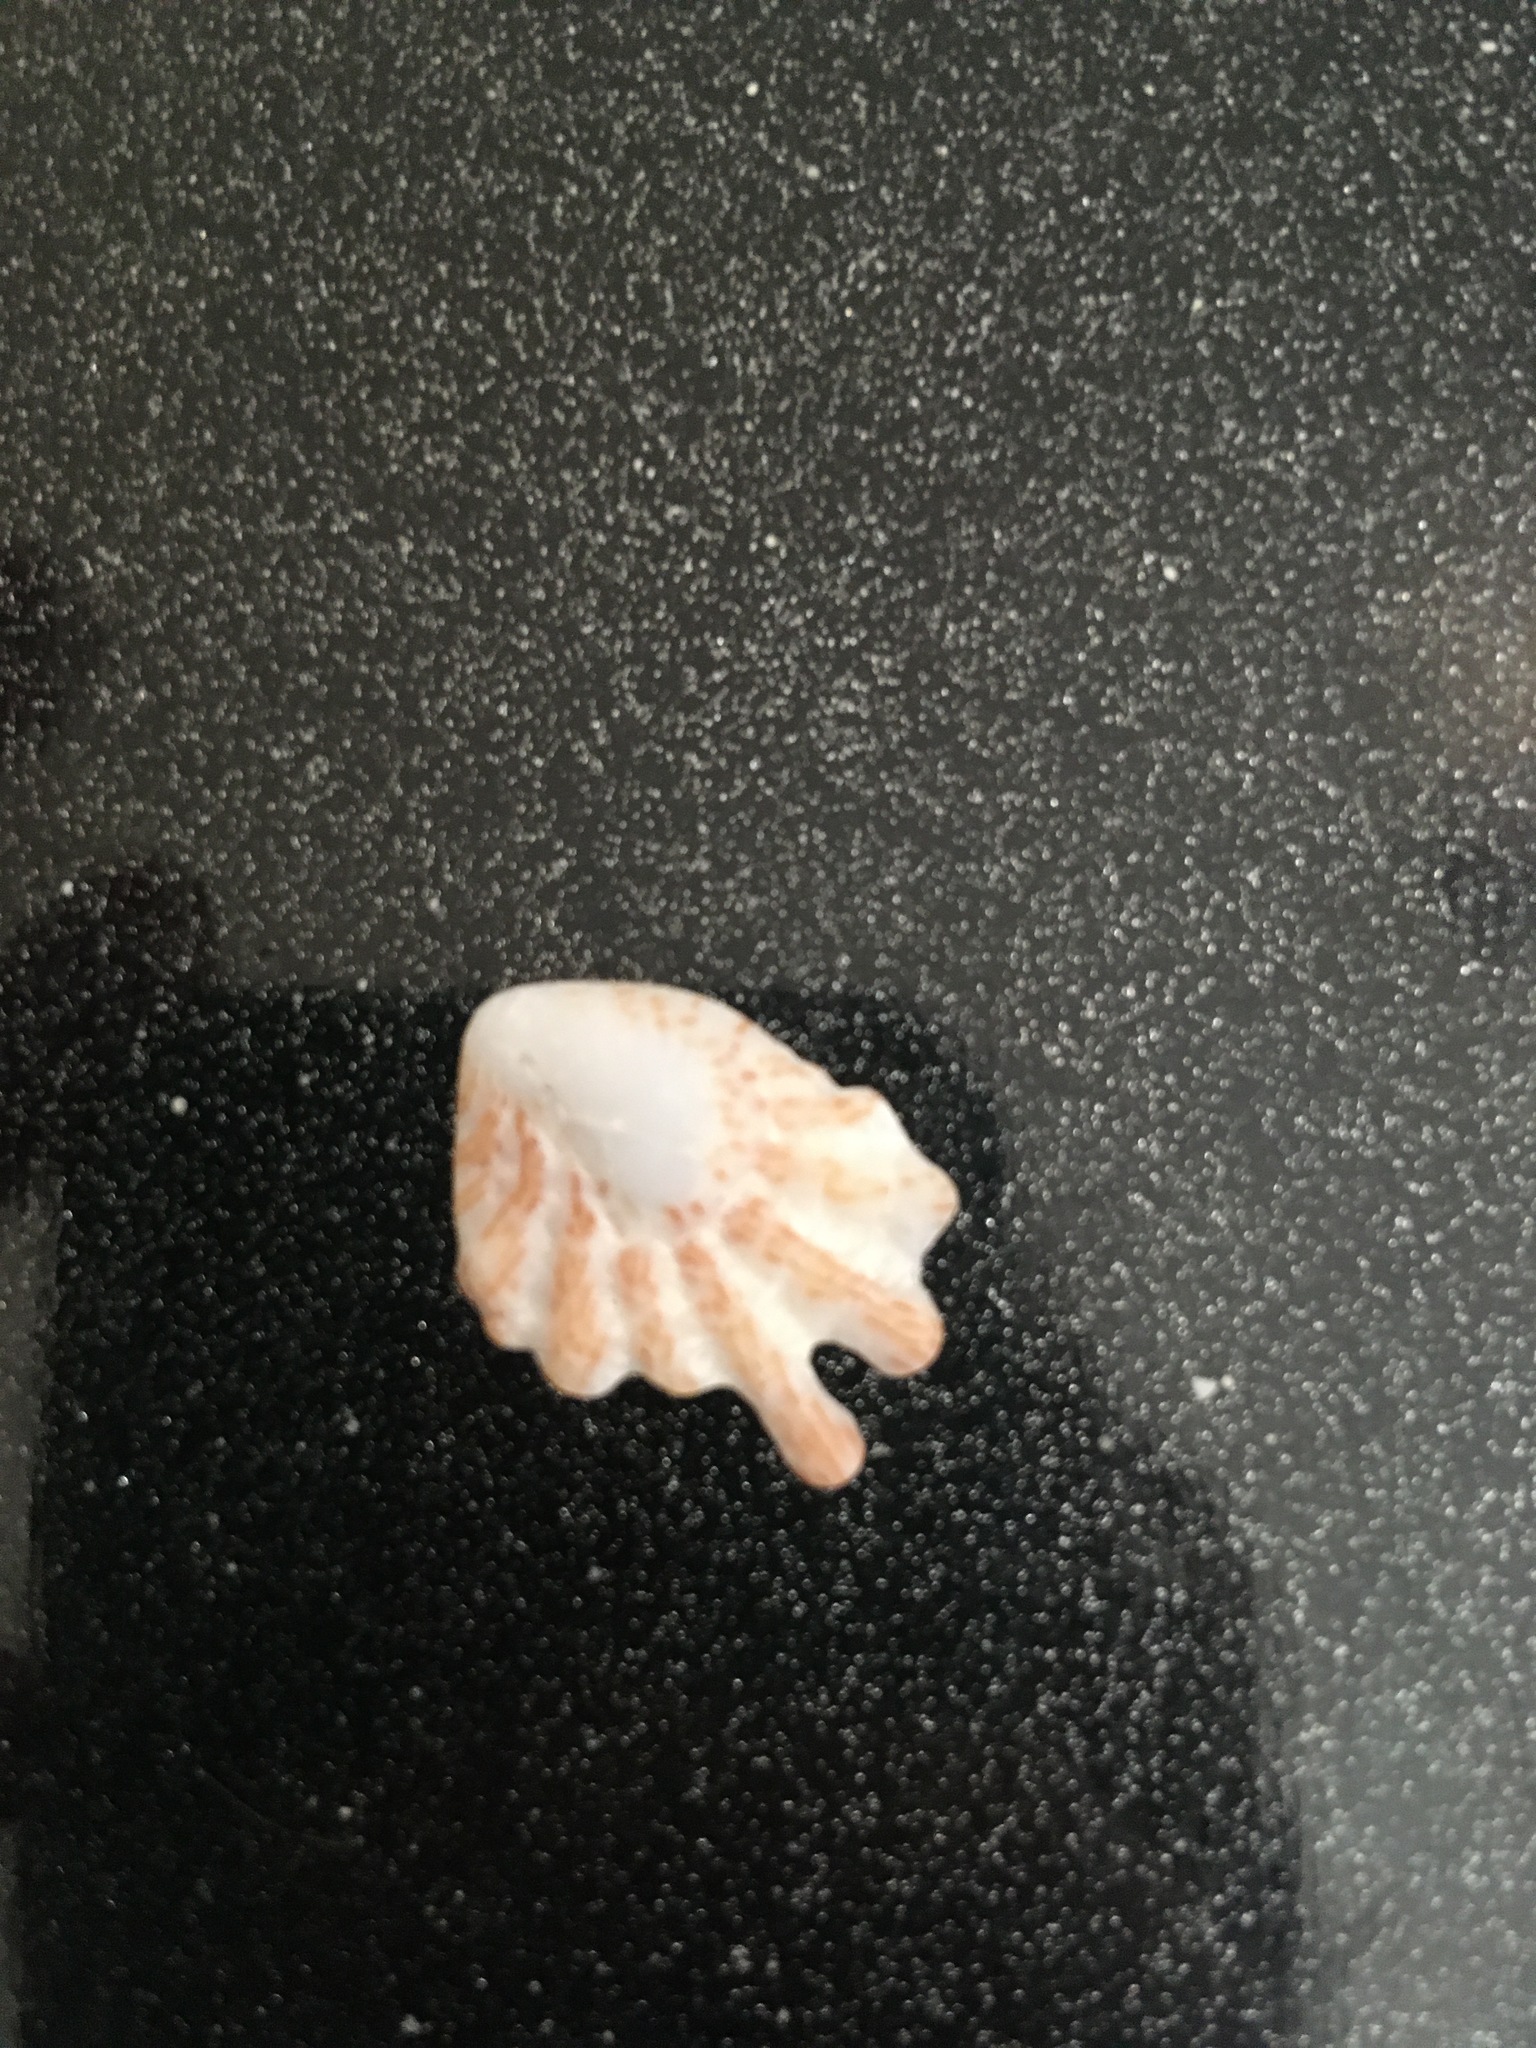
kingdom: Animalia
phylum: Mollusca
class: Bivalvia
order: Pectinida
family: Plicatulidae
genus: Plicatula
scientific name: Plicatula gibbosa
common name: Atlantic kitten's paw
